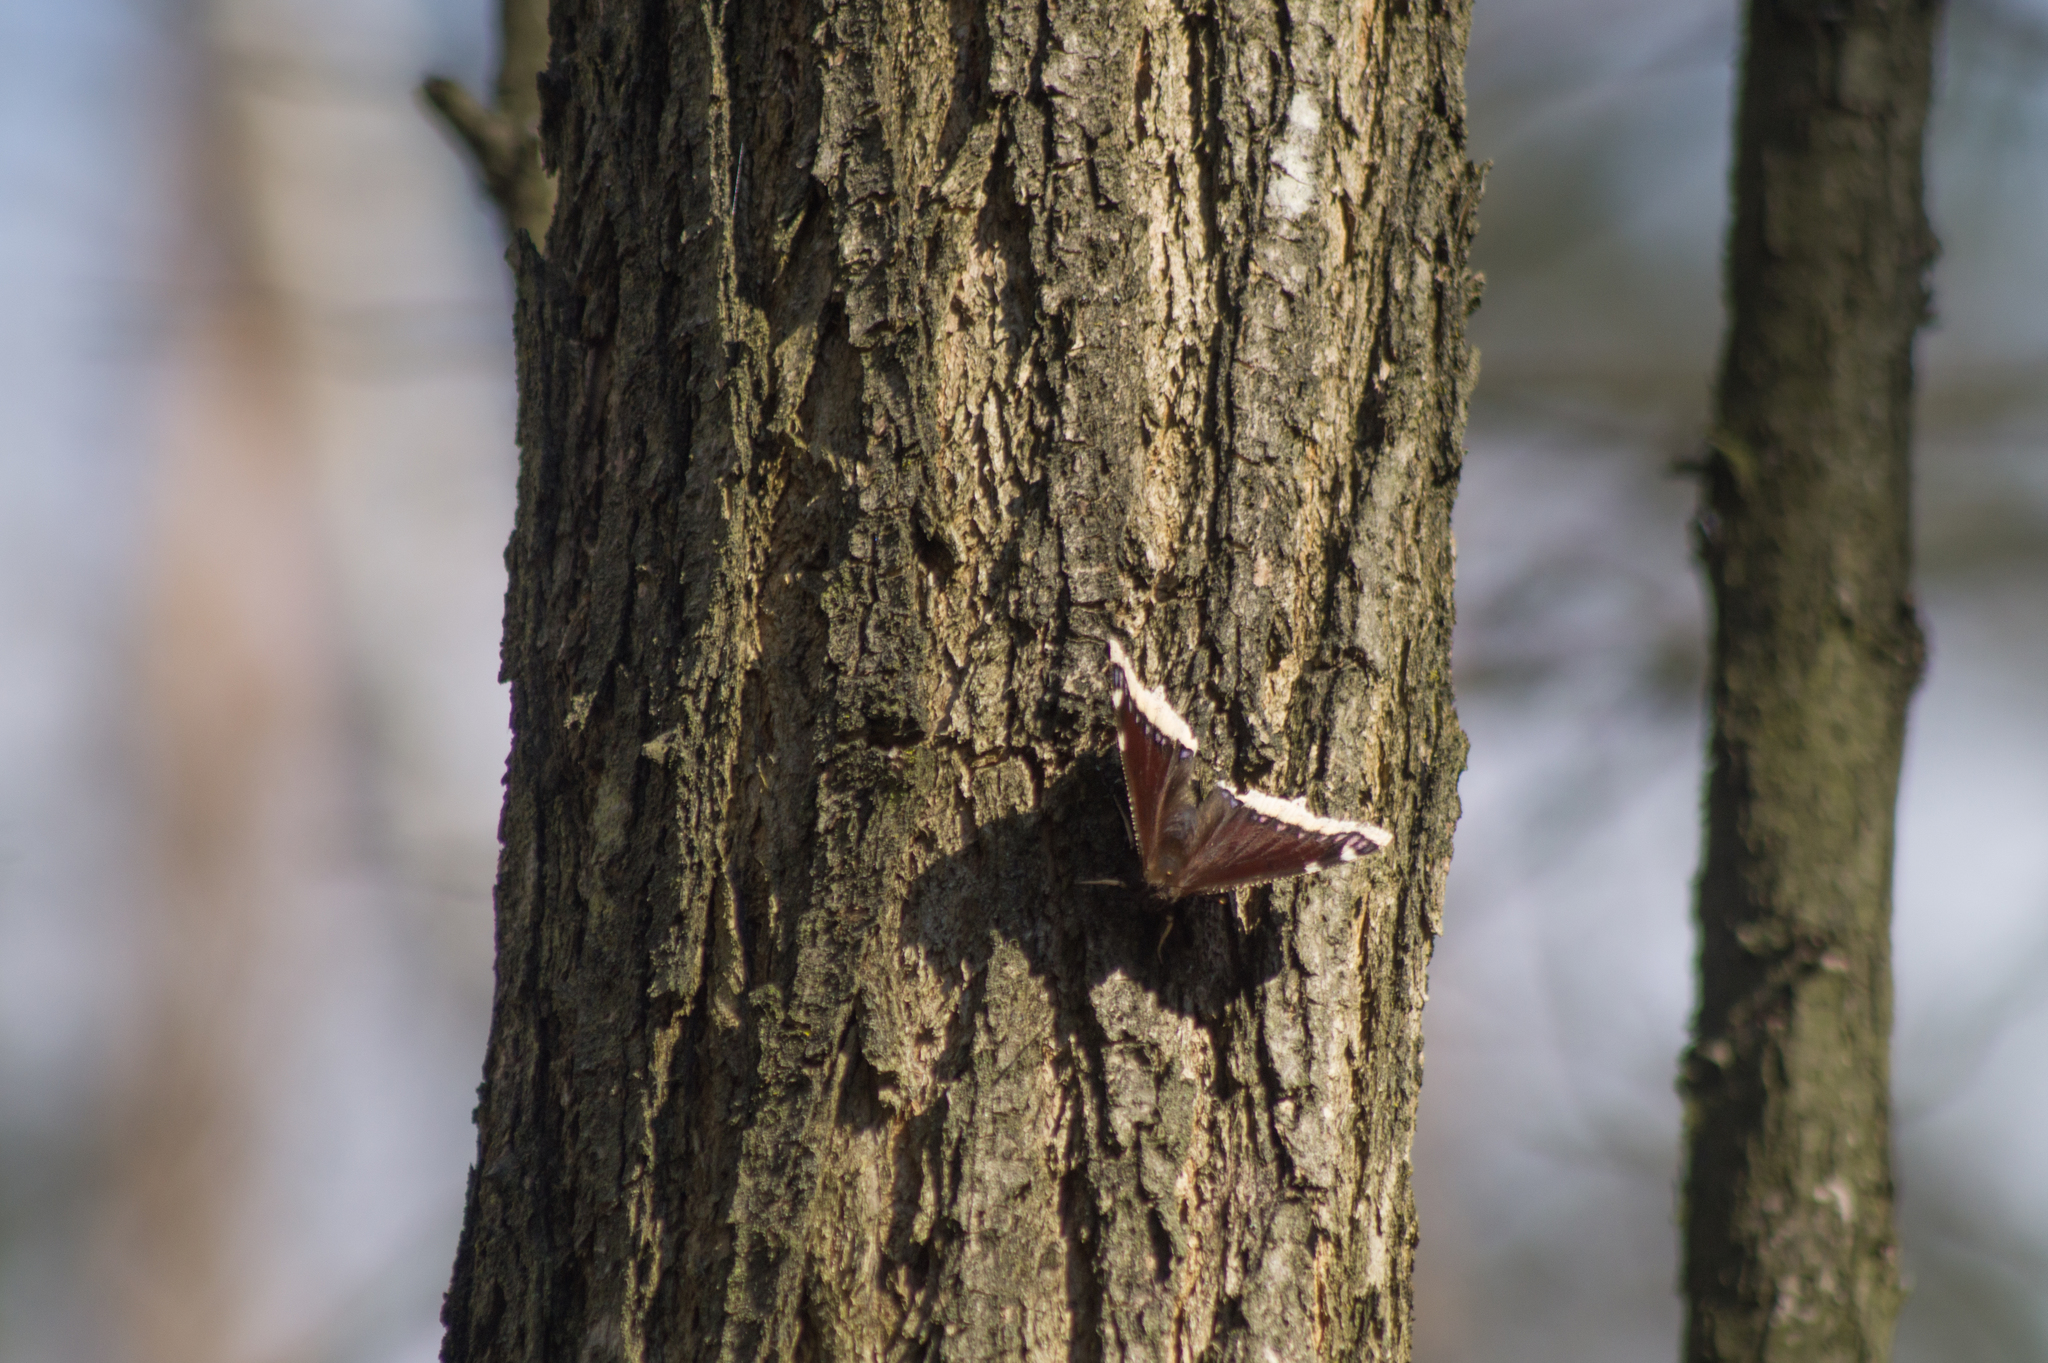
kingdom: Animalia
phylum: Arthropoda
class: Insecta
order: Lepidoptera
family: Nymphalidae
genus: Nymphalis
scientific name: Nymphalis antiopa
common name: Camberwell beauty
